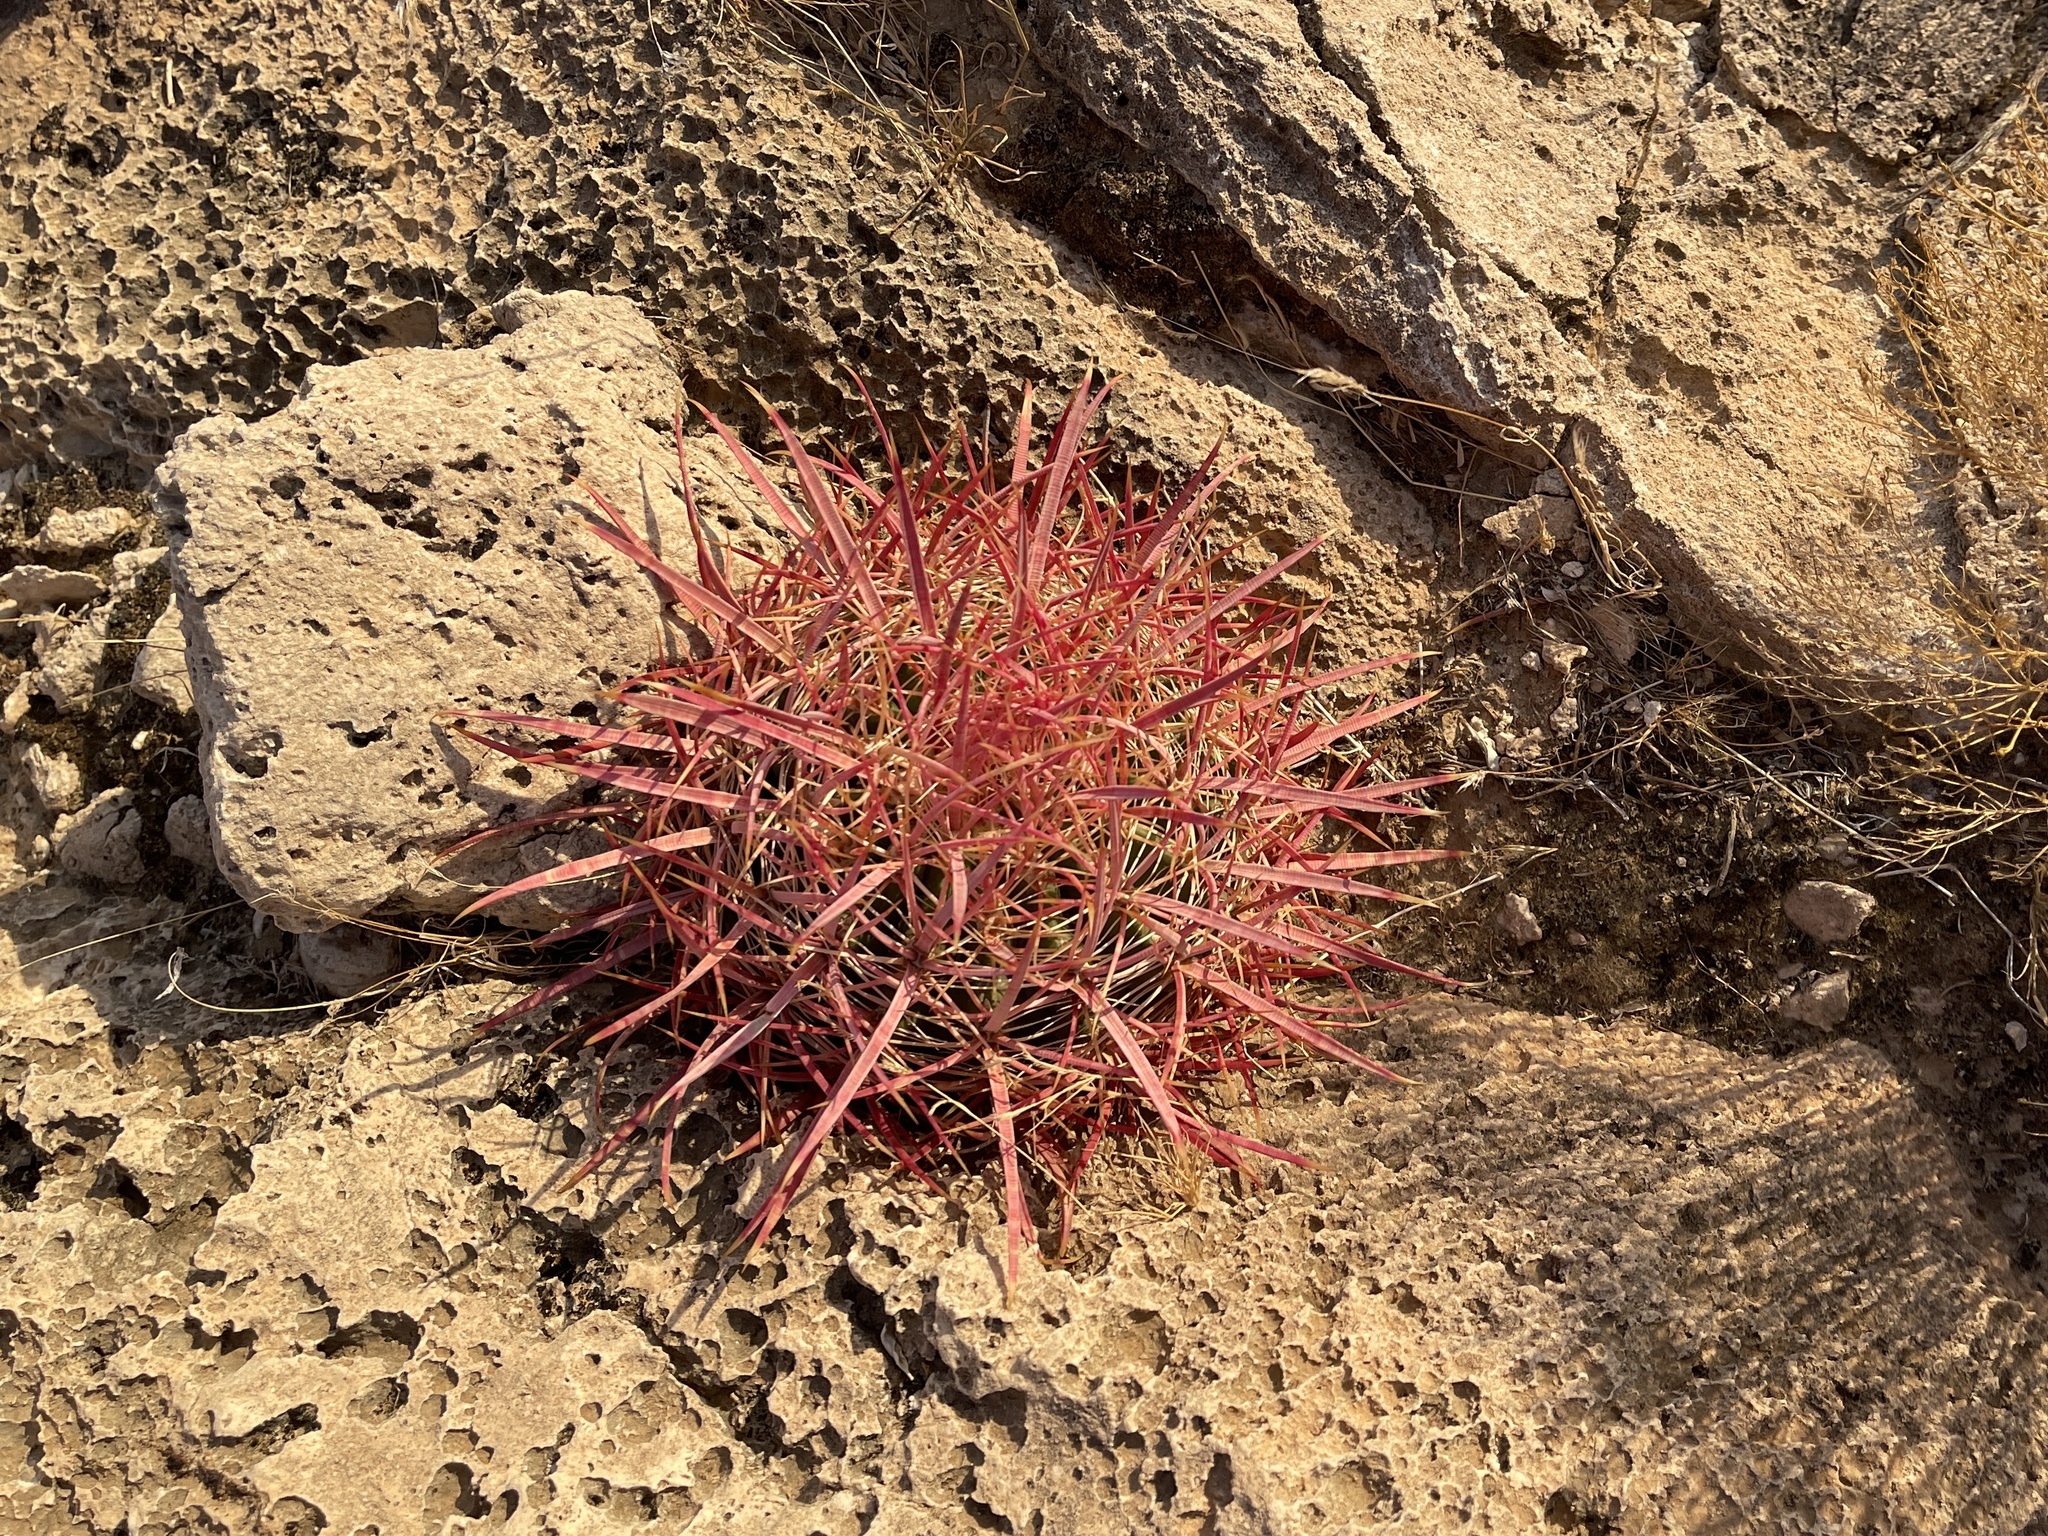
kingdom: Plantae
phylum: Tracheophyta
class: Magnoliopsida
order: Caryophyllales
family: Cactaceae
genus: Ferocactus
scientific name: Ferocactus cylindraceus
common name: California barrel cactus
